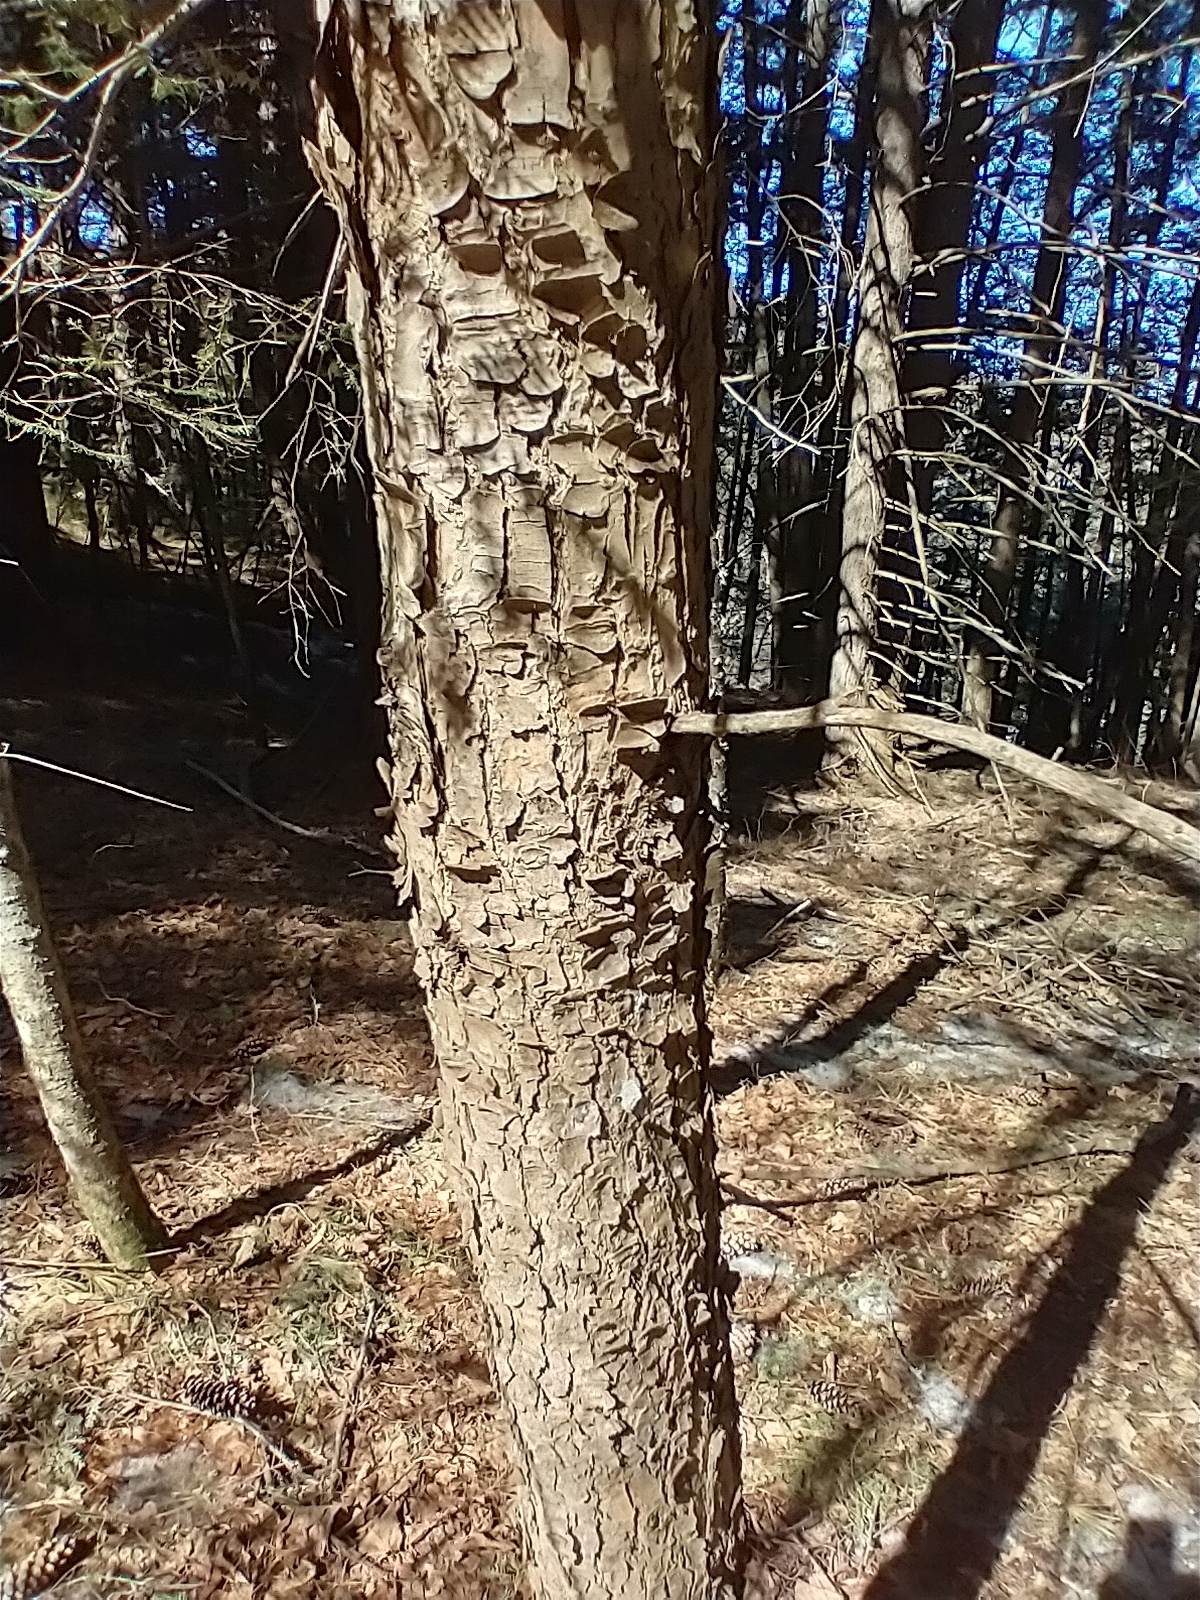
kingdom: Plantae
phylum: Tracheophyta
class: Pinopsida
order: Pinales
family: Pinaceae
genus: Tsuga
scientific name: Tsuga canadensis
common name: Eastern hemlock
